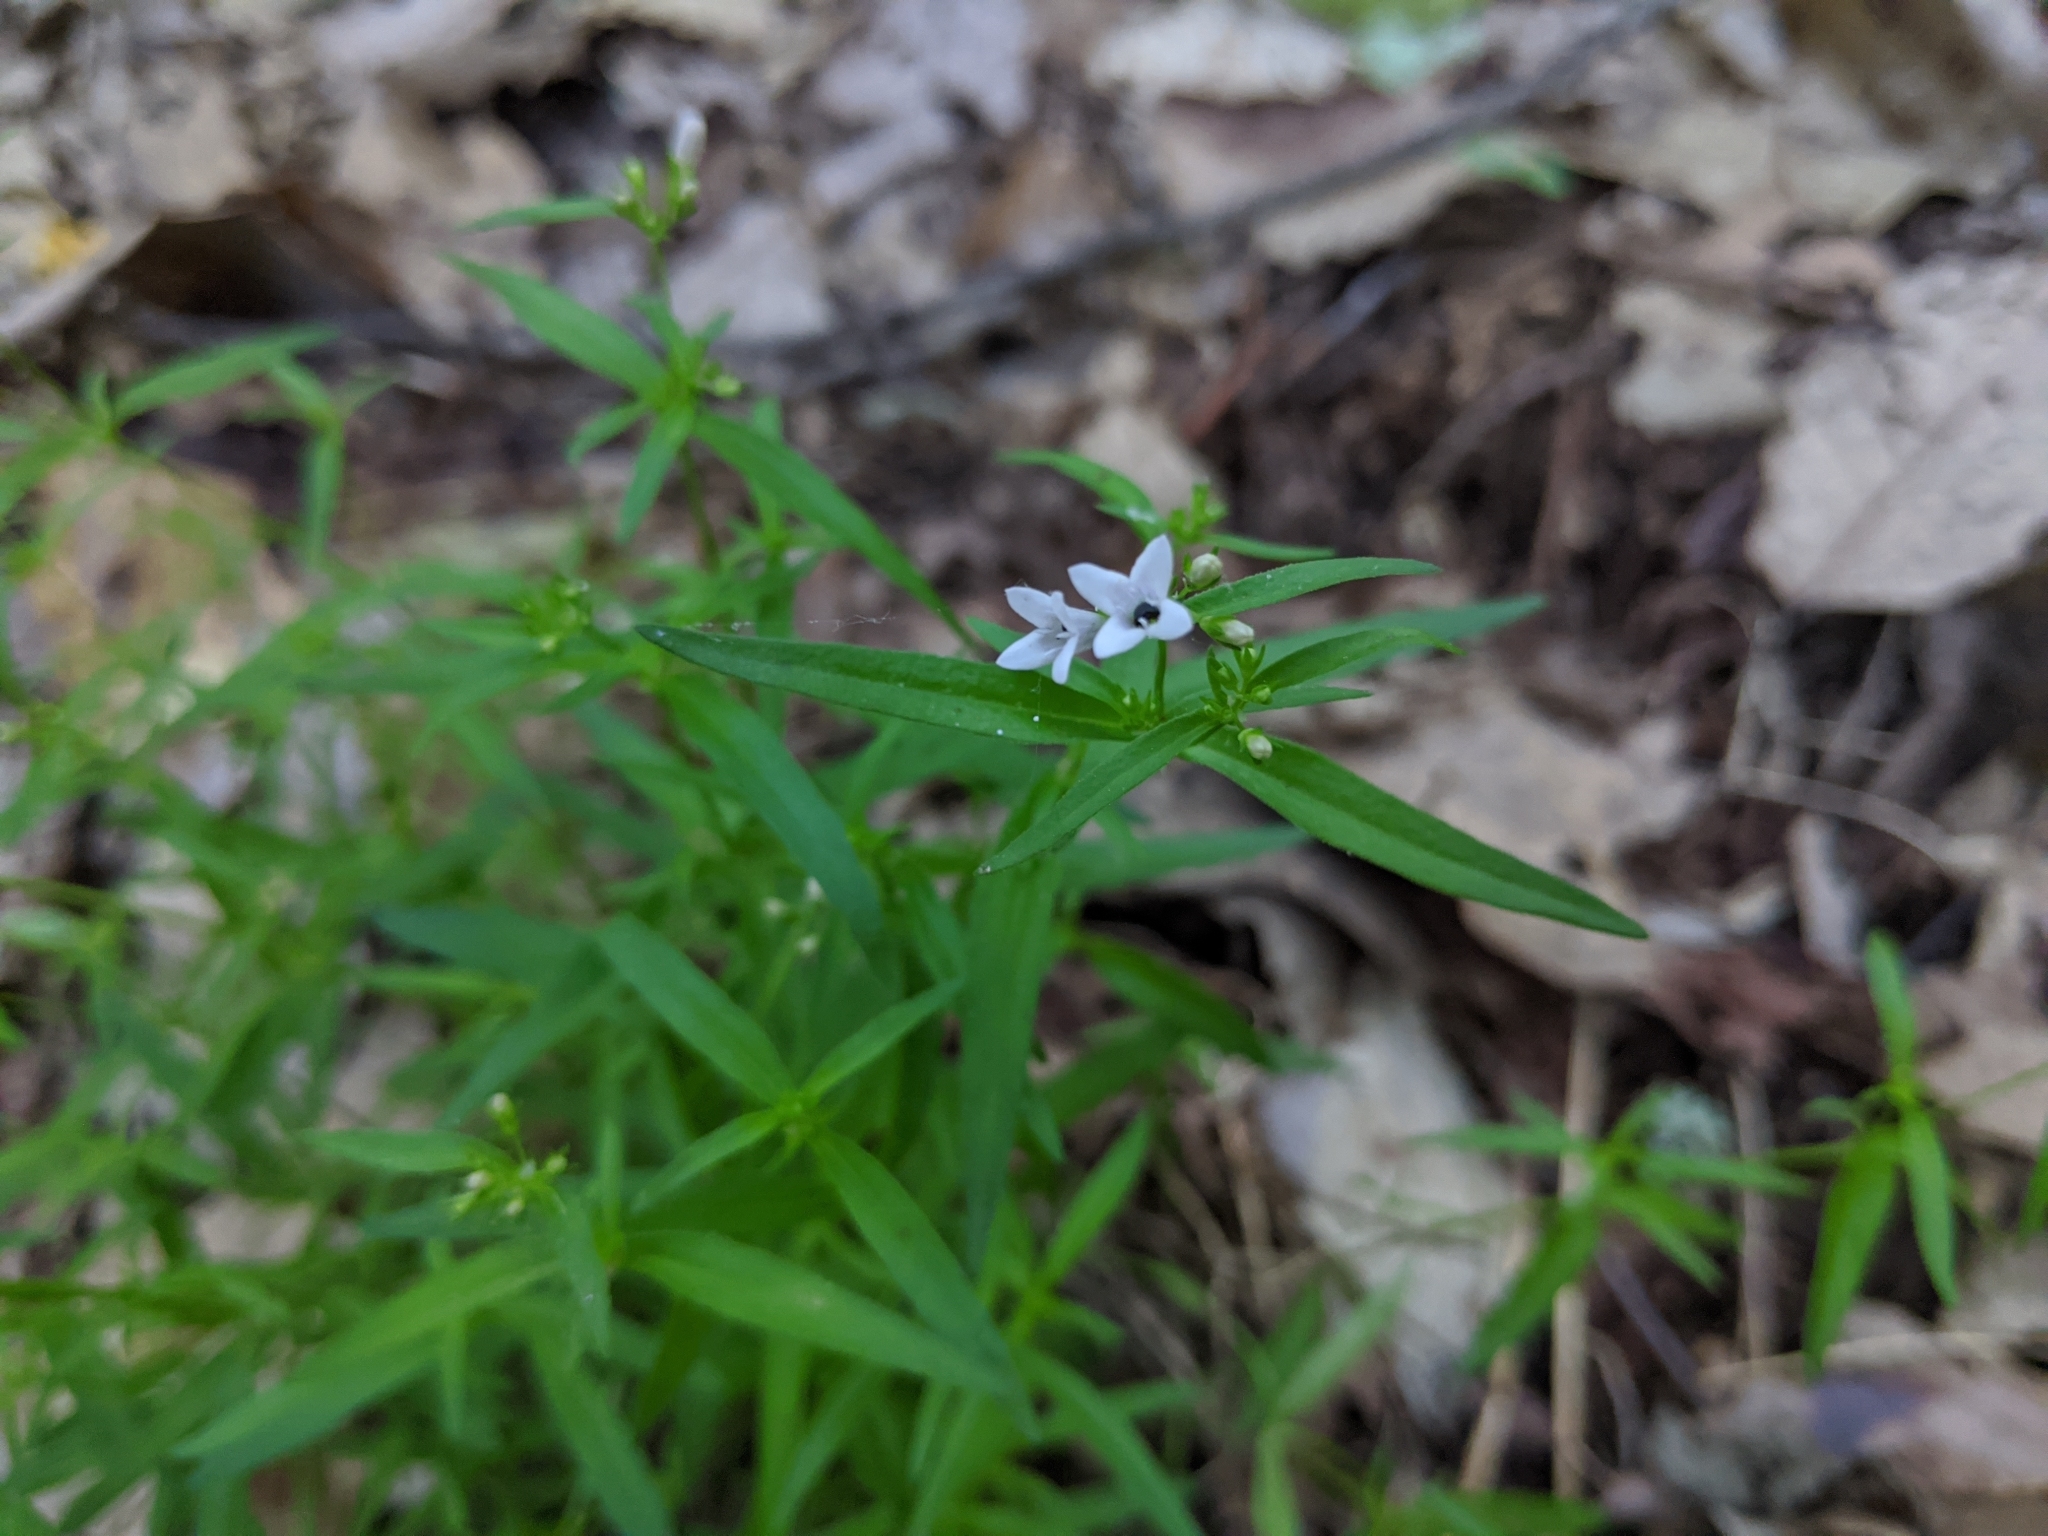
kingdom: Plantae
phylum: Tracheophyta
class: Magnoliopsida
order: Gentianales
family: Rubiaceae
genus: Houstonia
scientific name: Houstonia longifolia
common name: Long-leaved bluets
